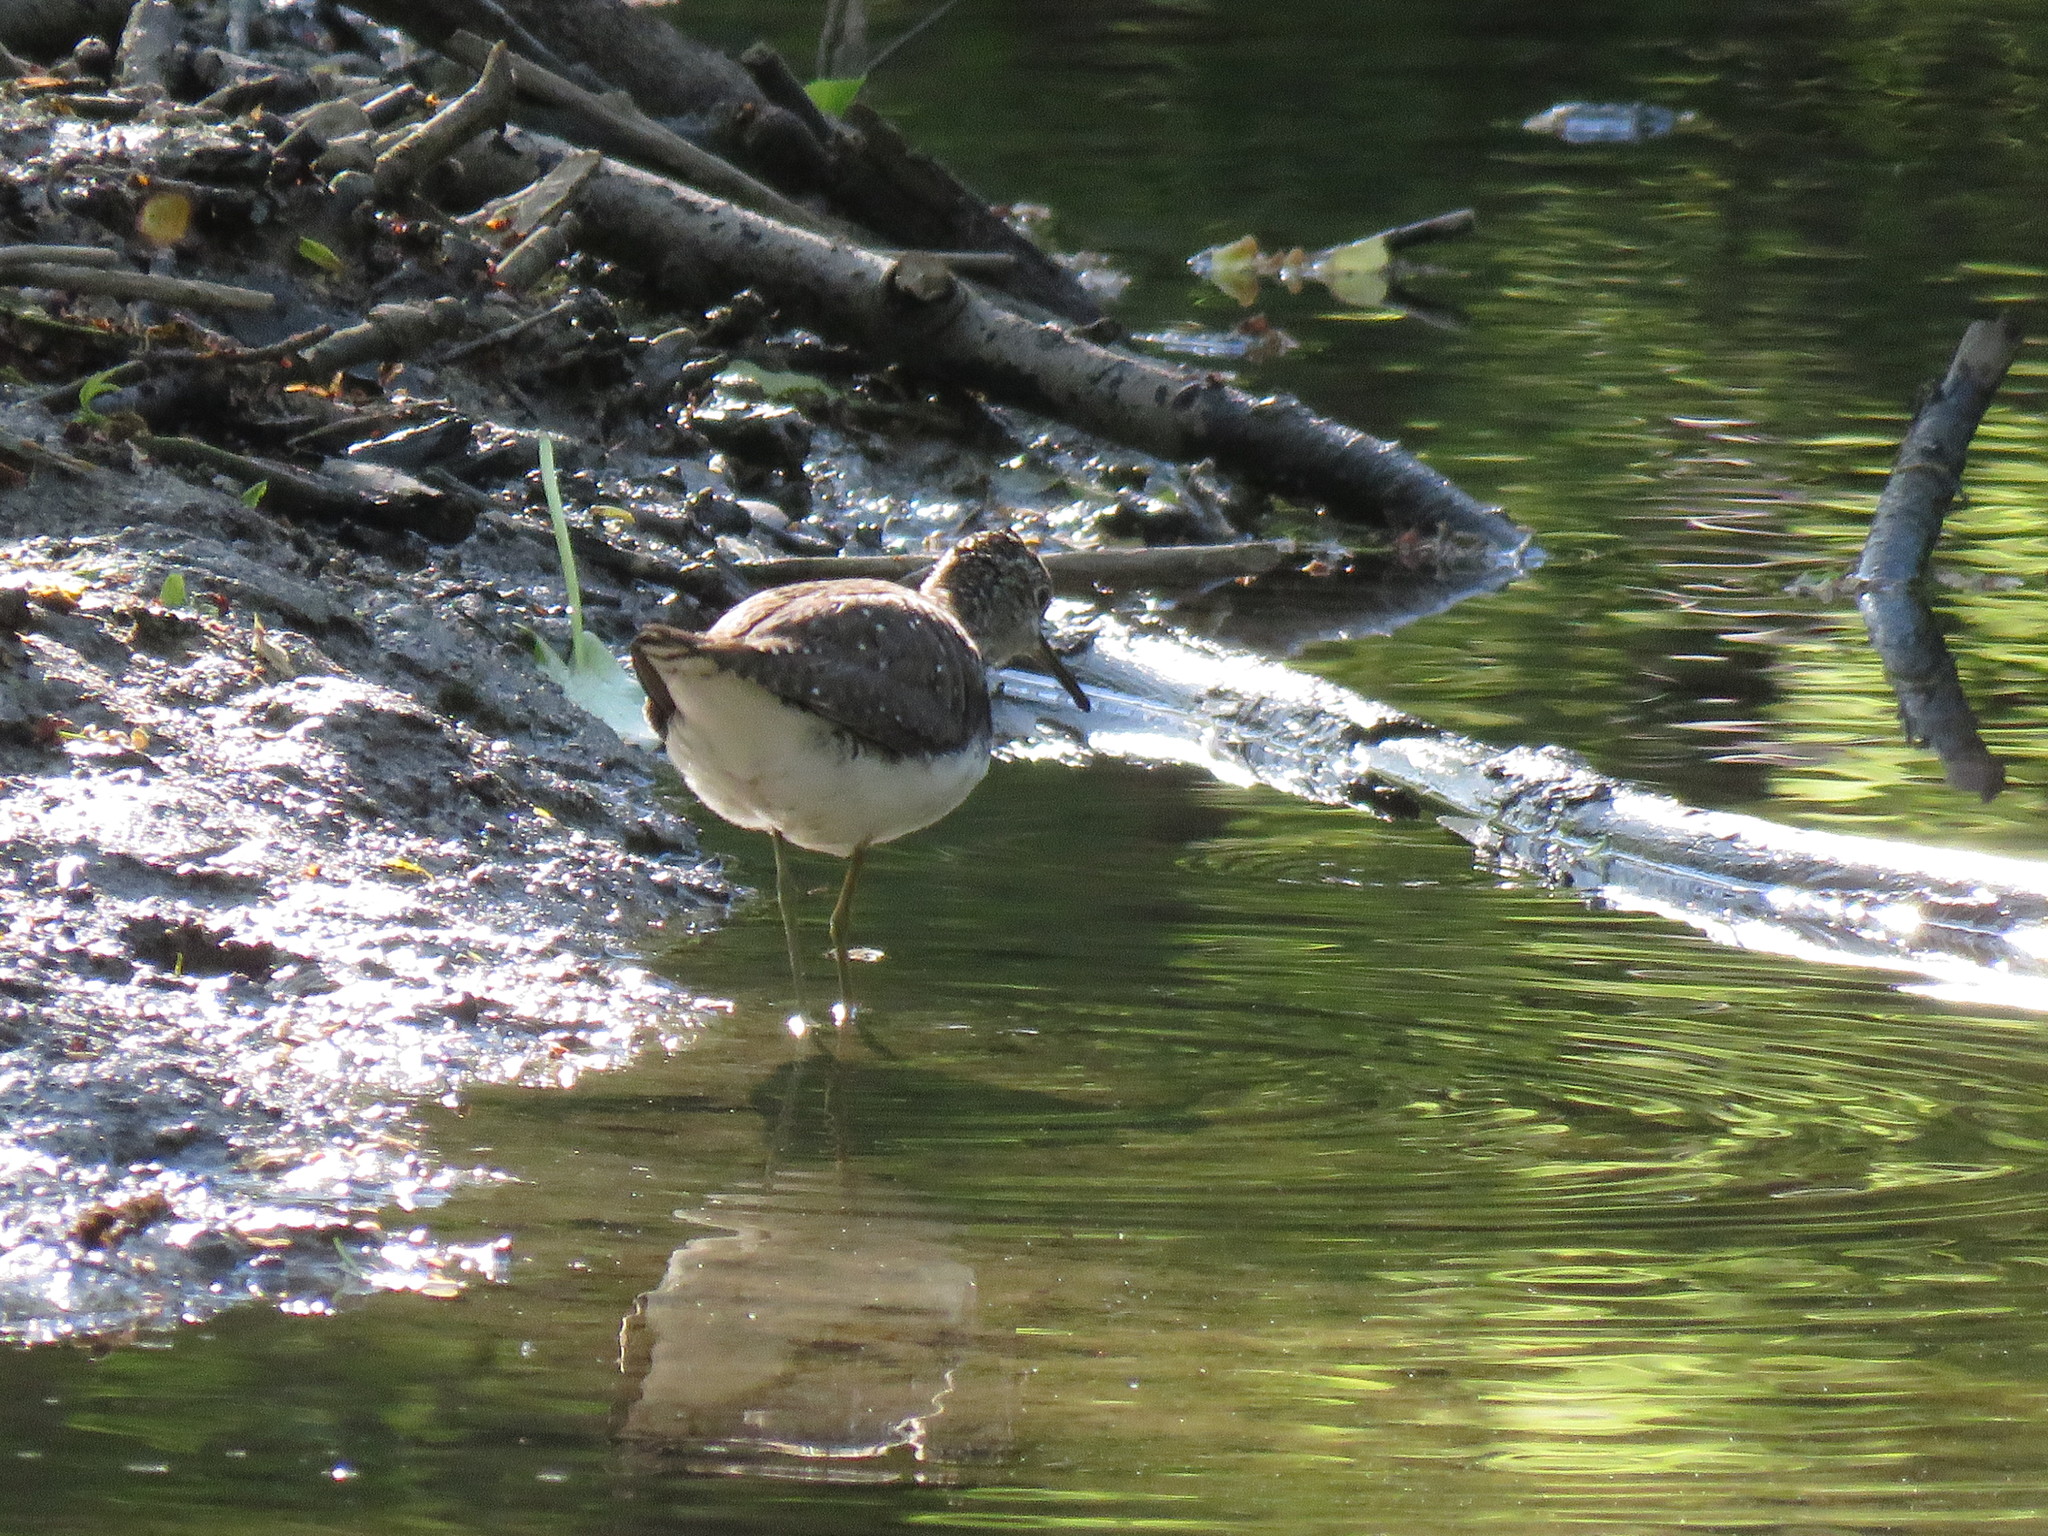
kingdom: Animalia
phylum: Chordata
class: Aves
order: Charadriiformes
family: Scolopacidae
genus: Tringa
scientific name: Tringa solitaria
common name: Solitary sandpiper
